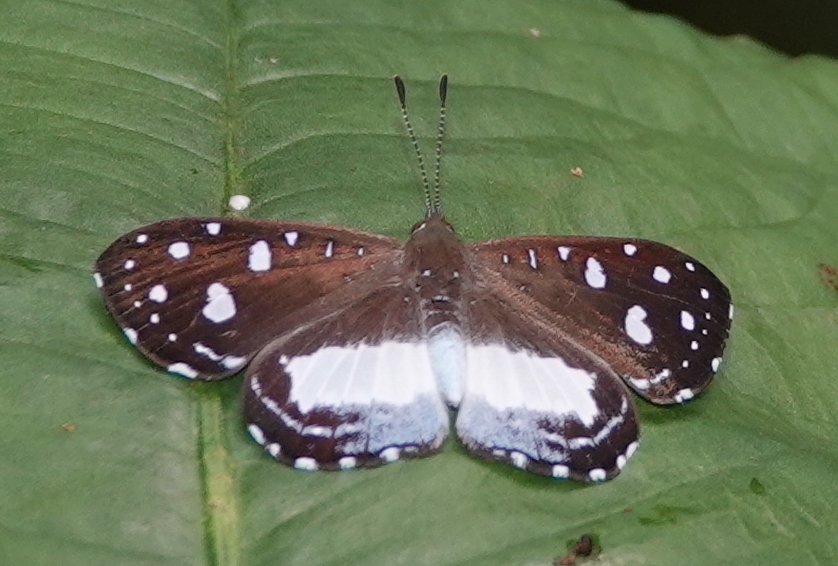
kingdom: Animalia
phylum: Arthropoda
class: Insecta
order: Lepidoptera
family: Riodinidae
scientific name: Riodinidae
